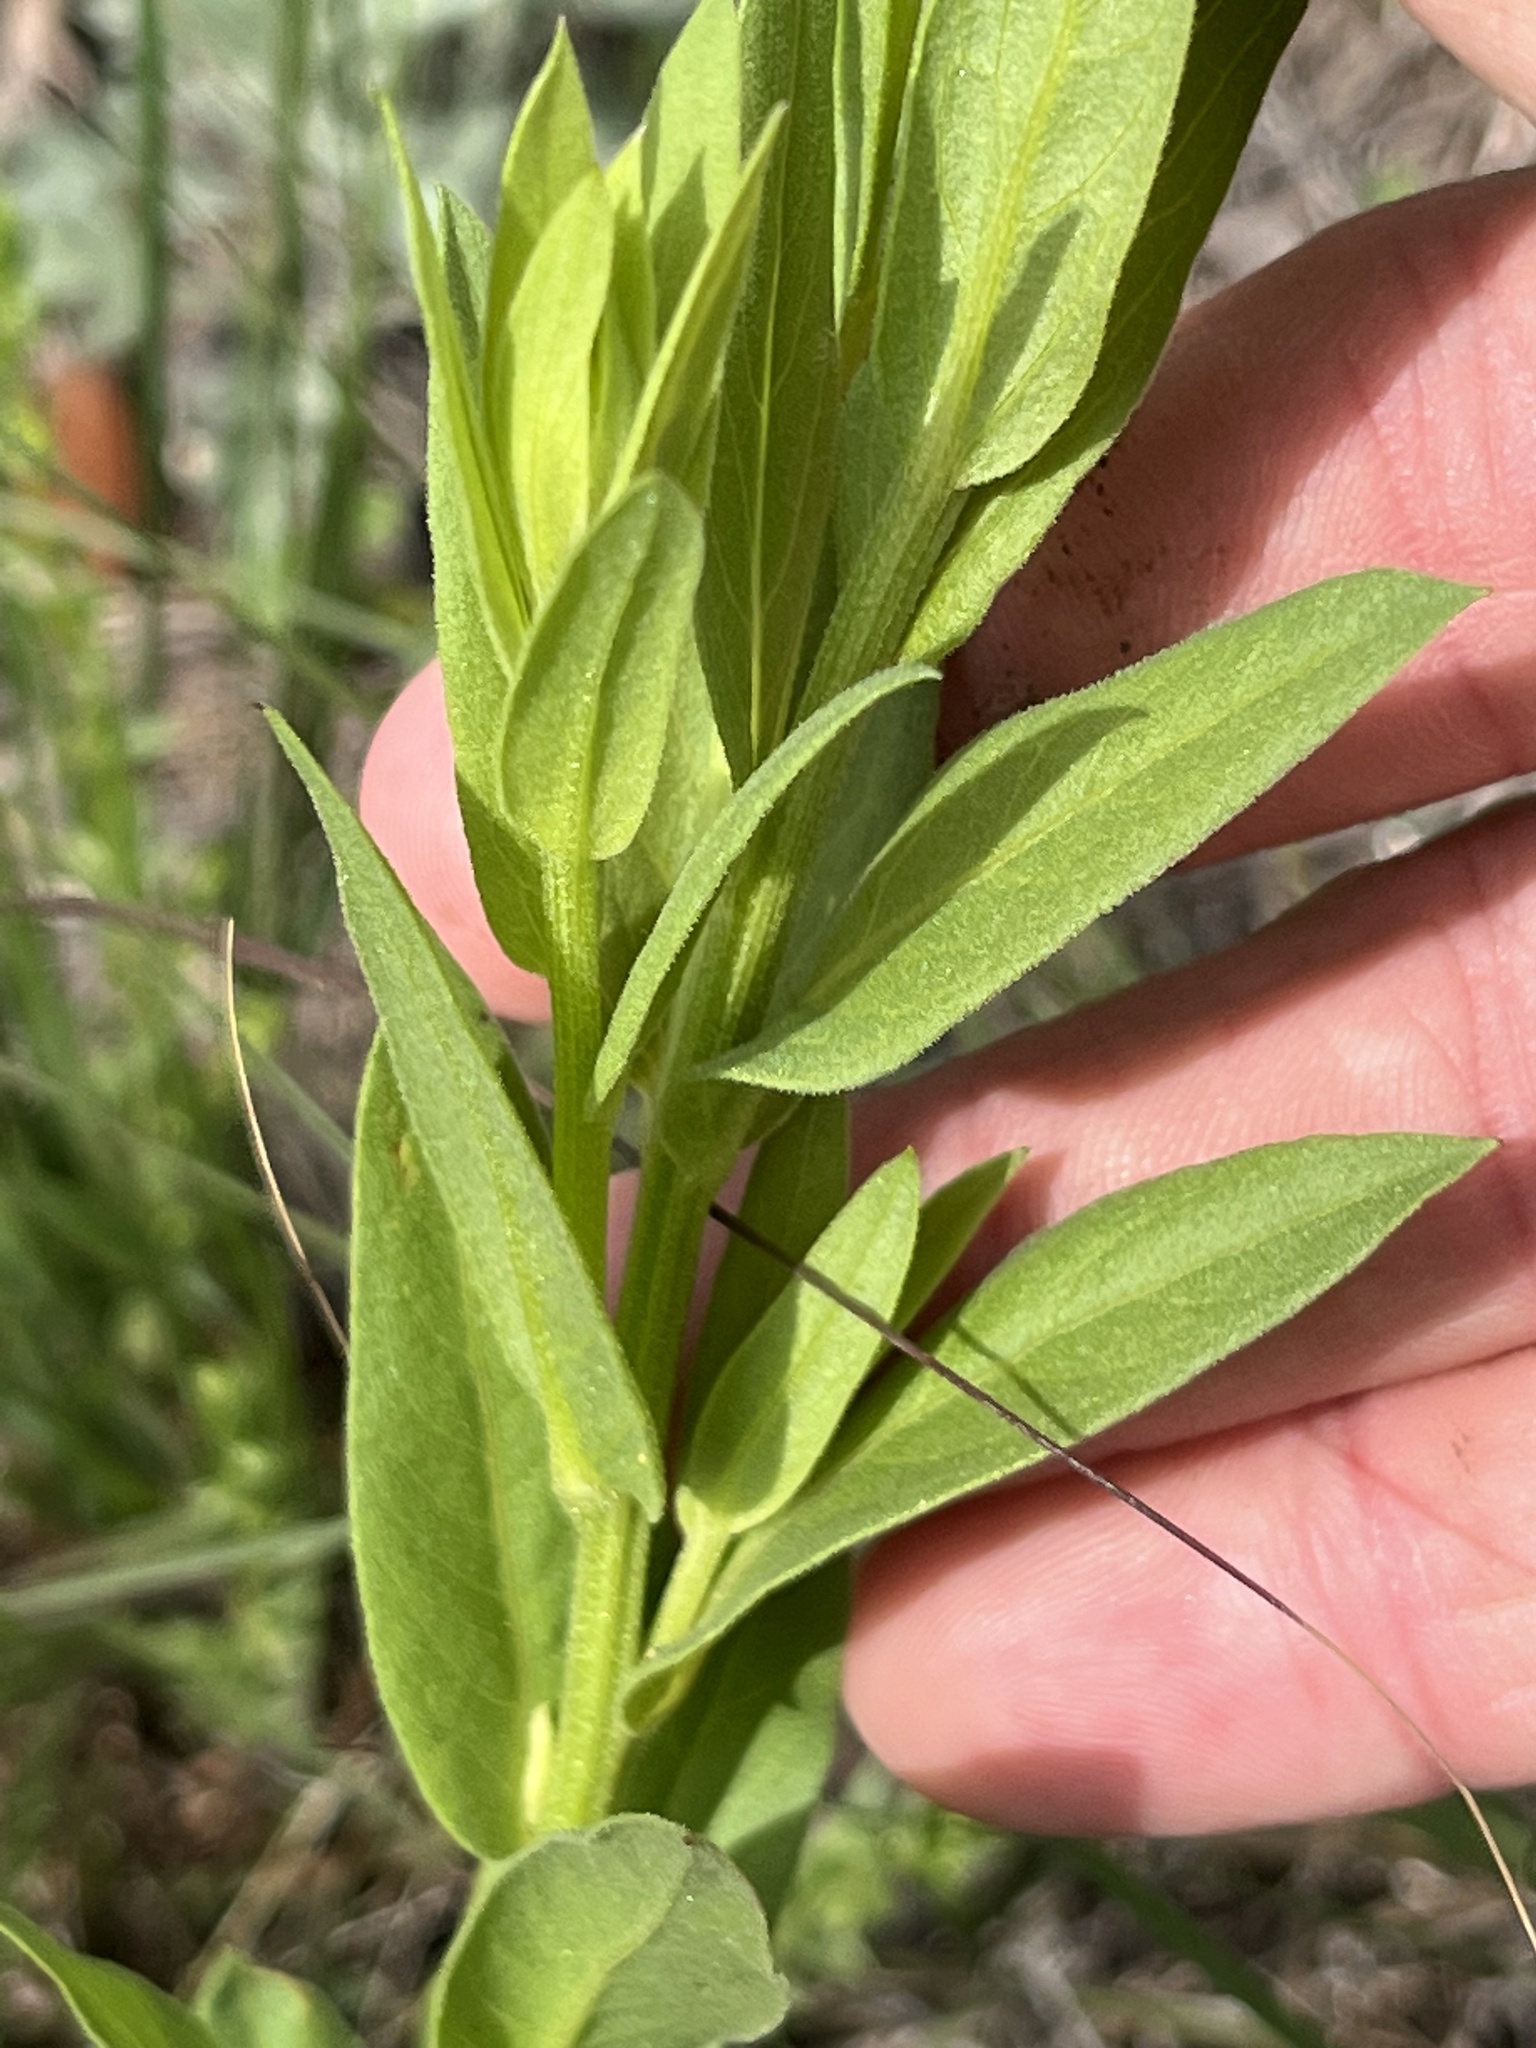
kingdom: Plantae
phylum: Tracheophyta
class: Magnoliopsida
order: Asterales
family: Asteraceae
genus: Plectocephalus
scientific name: Plectocephalus americanus
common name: American basket-flower
